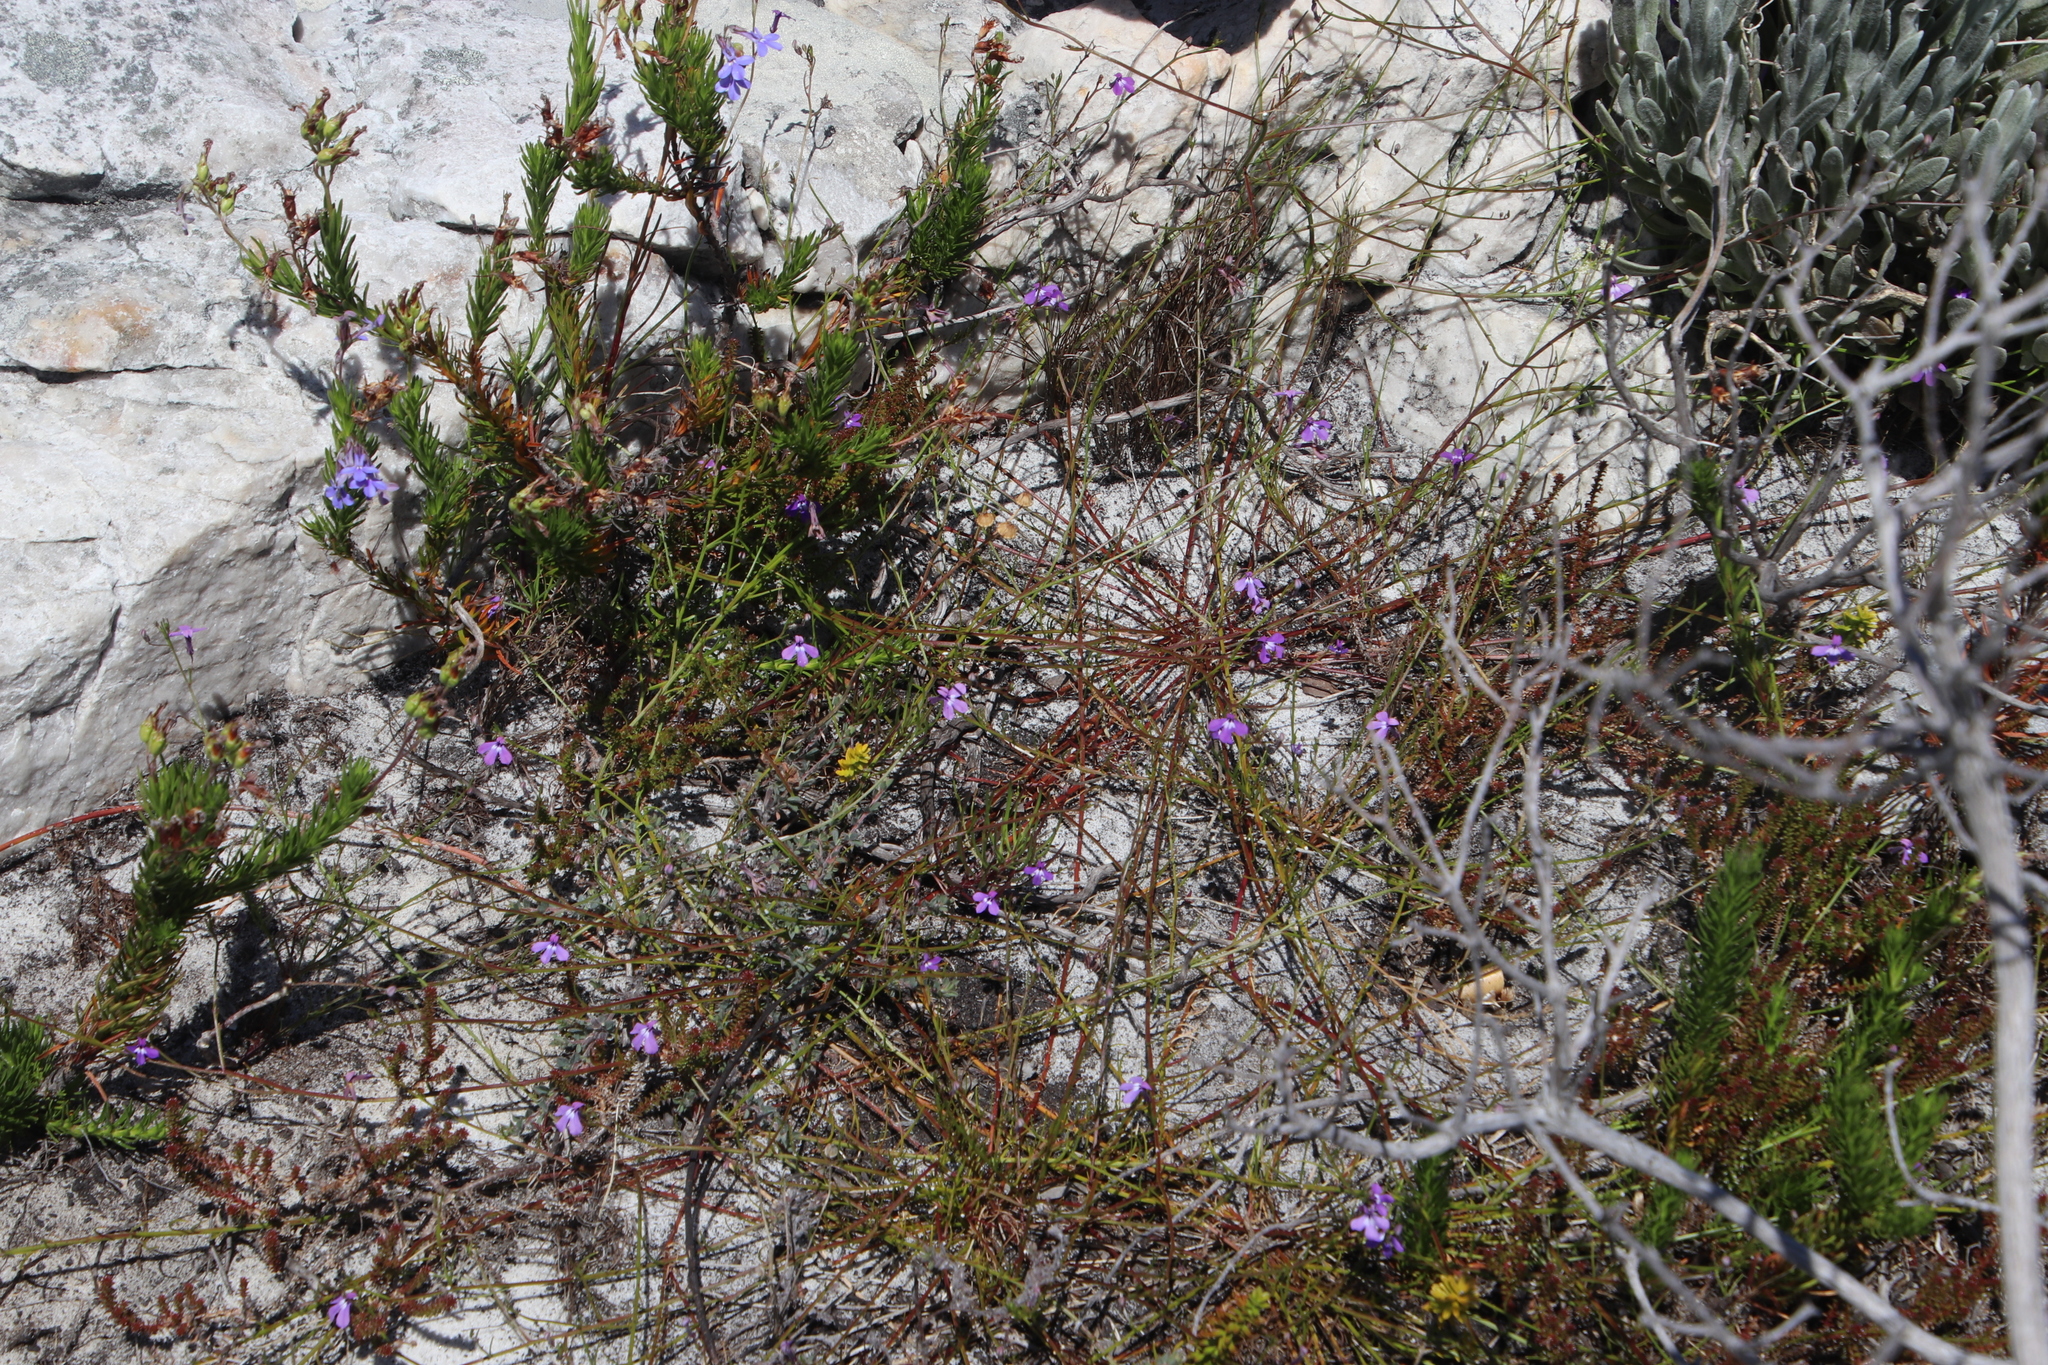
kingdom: Plantae
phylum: Tracheophyta
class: Magnoliopsida
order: Asterales
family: Campanulaceae
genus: Lobelia
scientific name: Lobelia setacea
